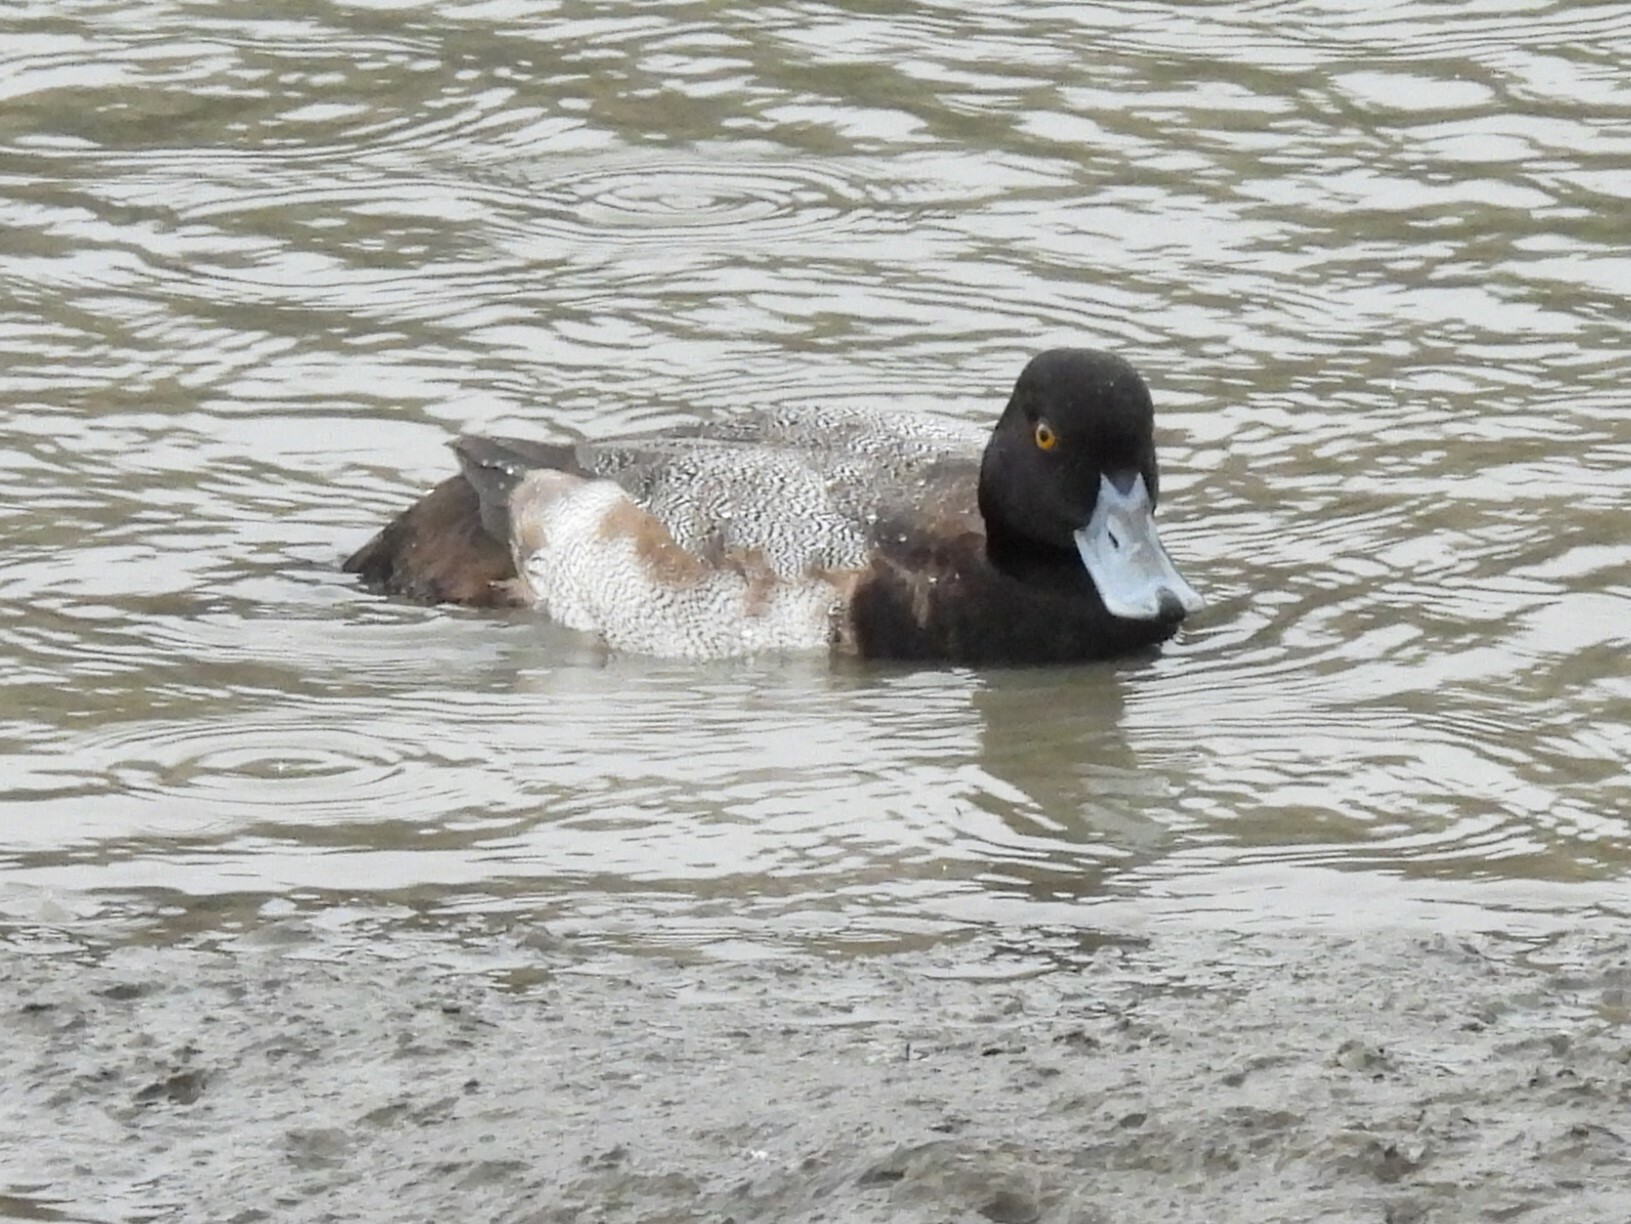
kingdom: Animalia
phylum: Chordata
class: Aves
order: Anseriformes
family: Anatidae
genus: Aythya
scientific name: Aythya marila
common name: Greater scaup
